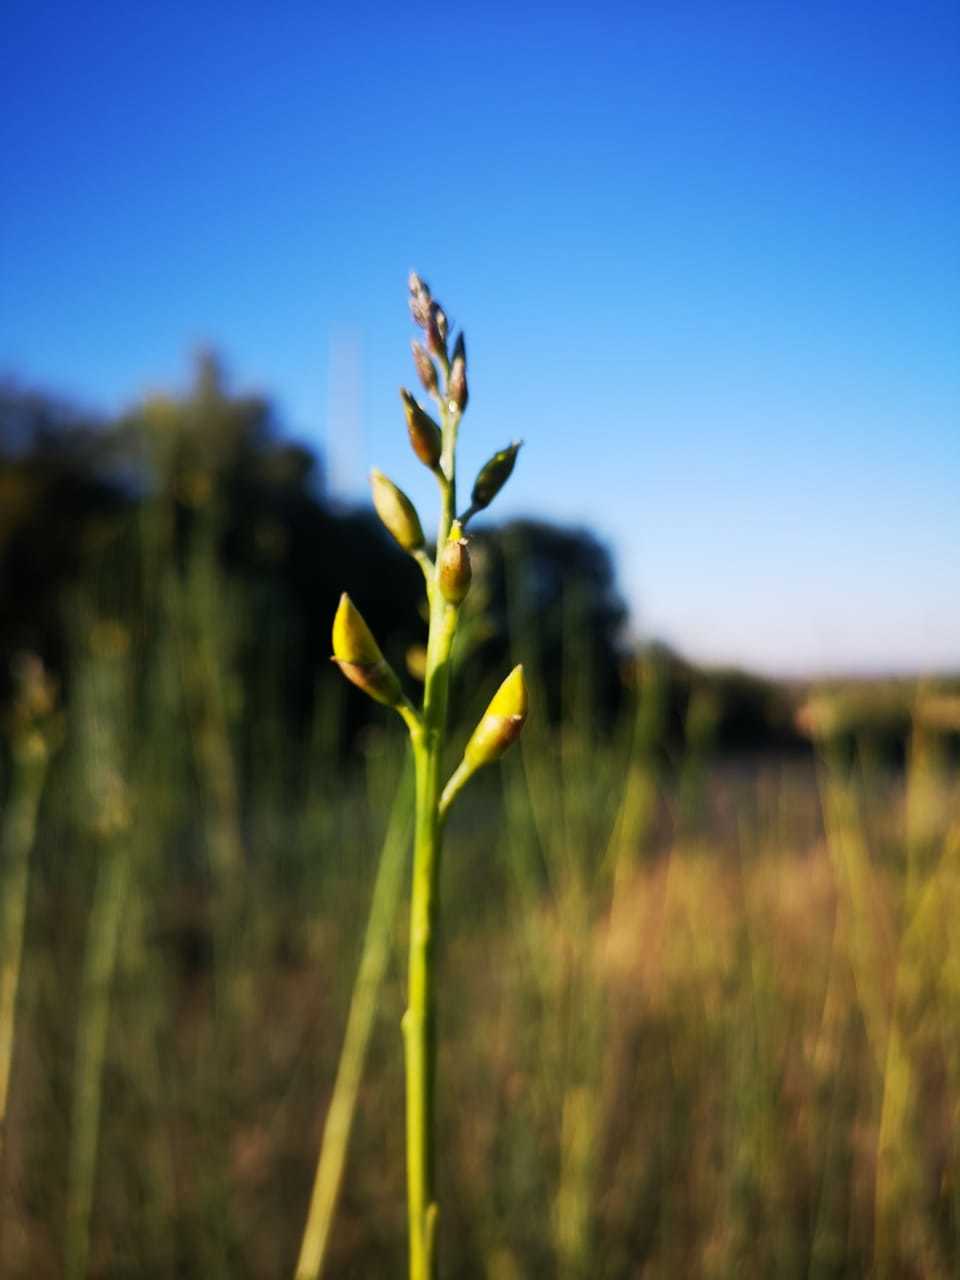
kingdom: Plantae
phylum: Tracheophyta
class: Magnoliopsida
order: Fabales
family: Fabaceae
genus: Spartium
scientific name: Spartium junceum
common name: Spanish broom
